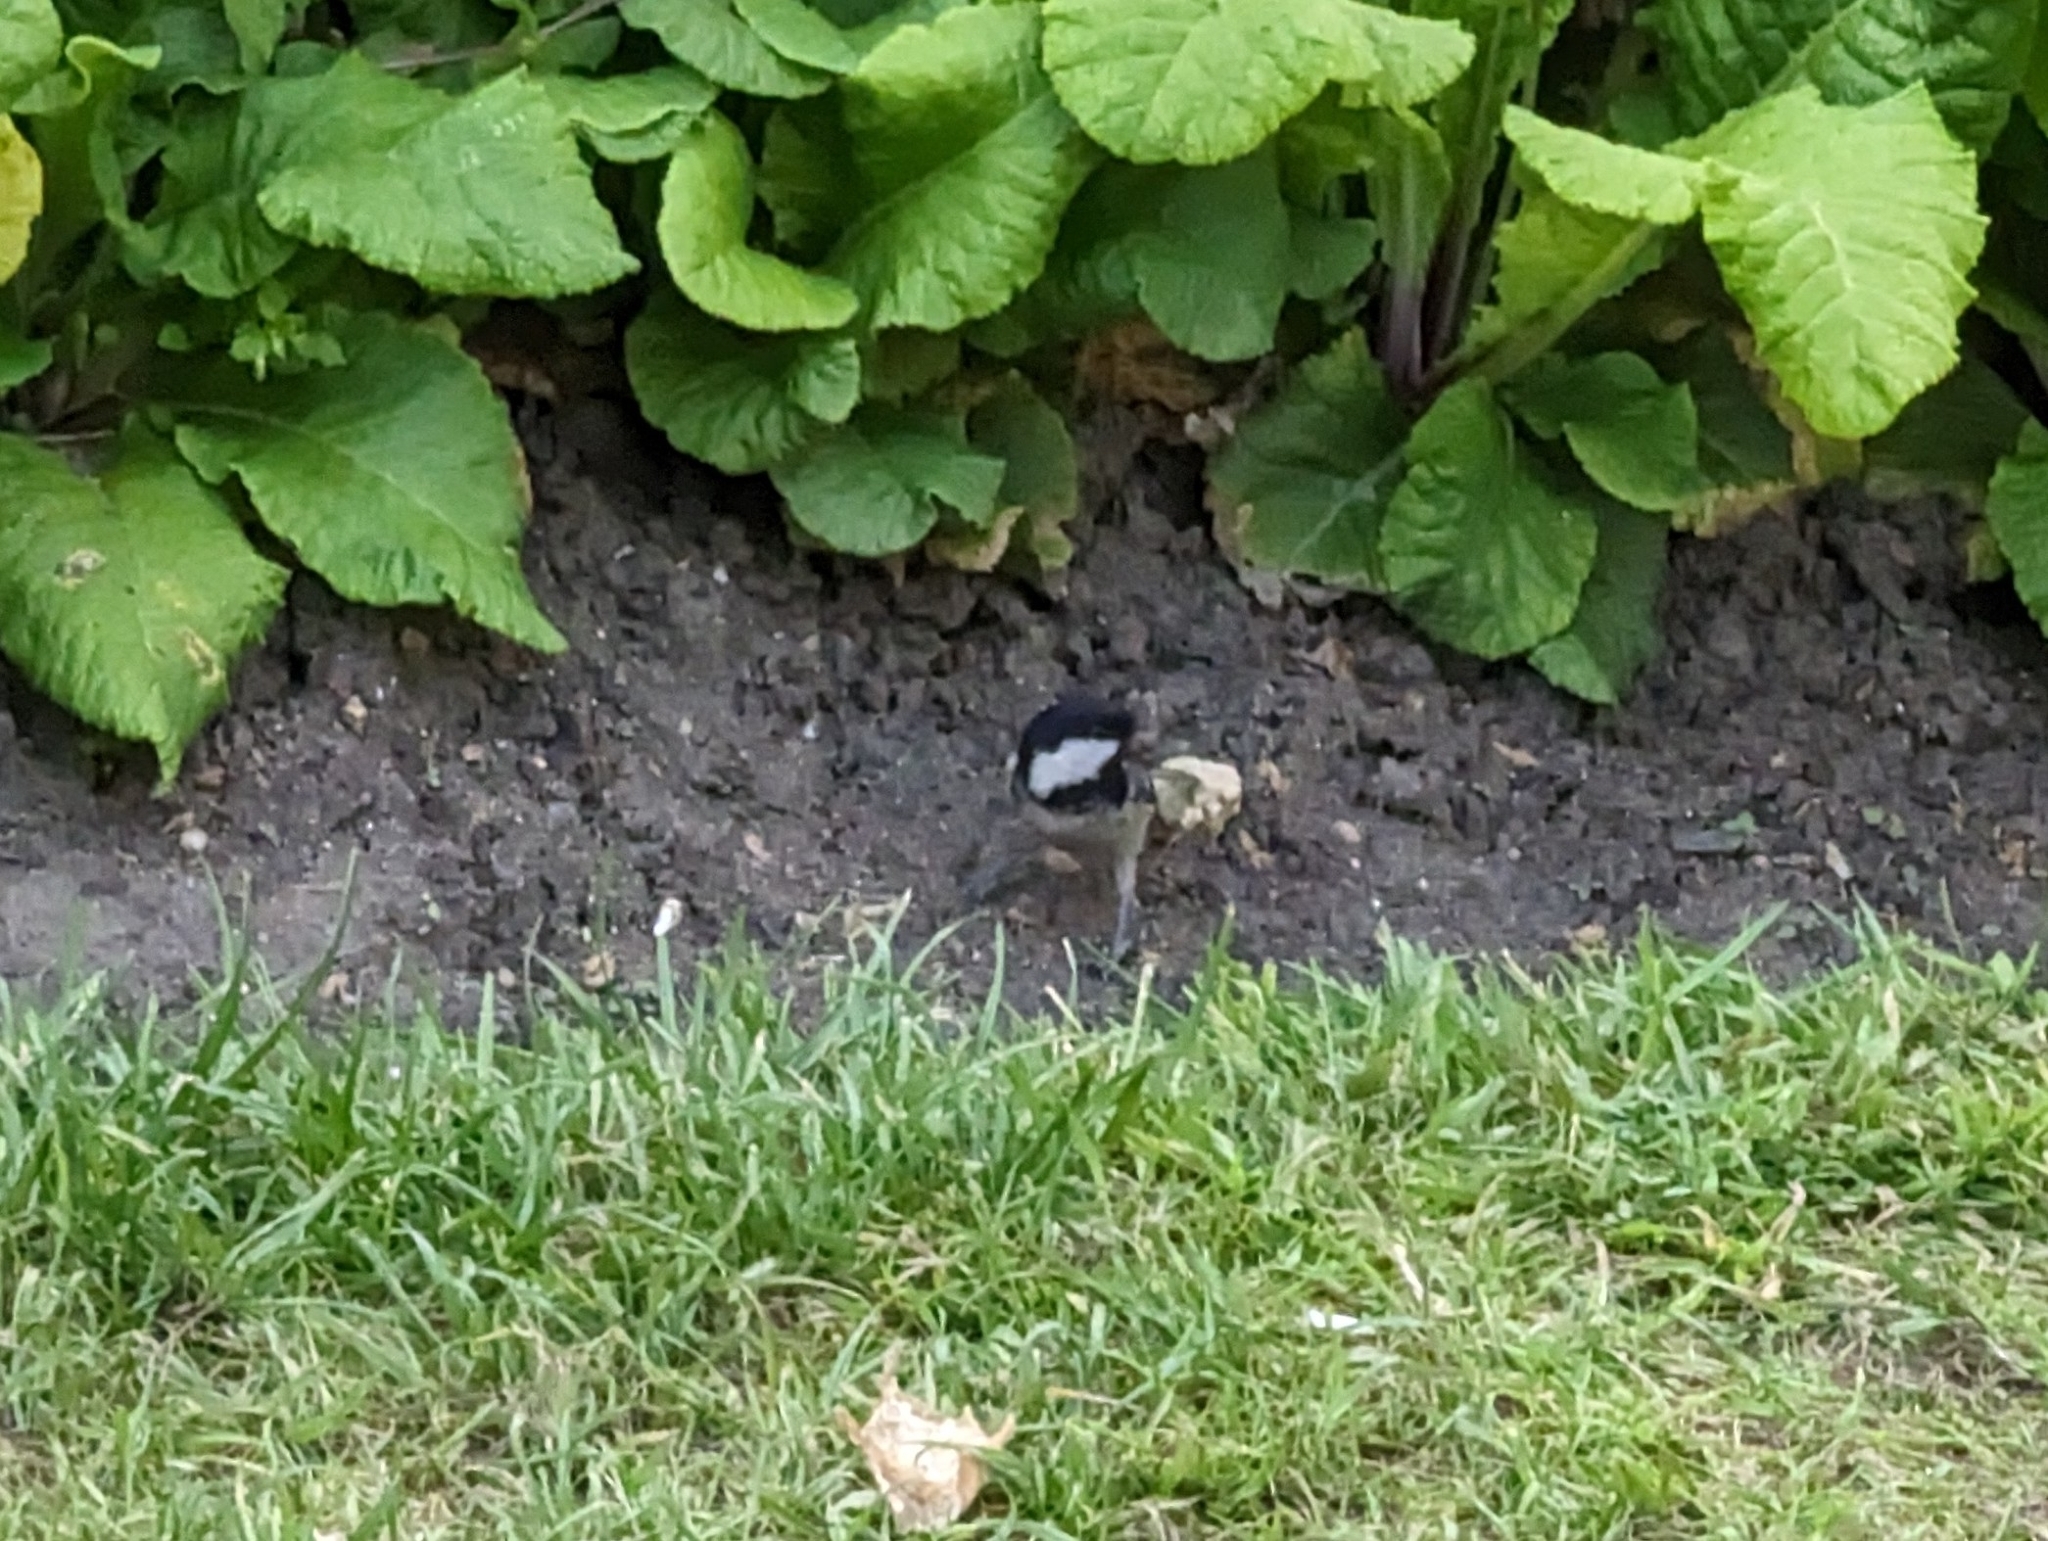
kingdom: Animalia
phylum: Chordata
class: Aves
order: Passeriformes
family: Paridae
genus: Periparus
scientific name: Periparus ater
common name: Coal tit
